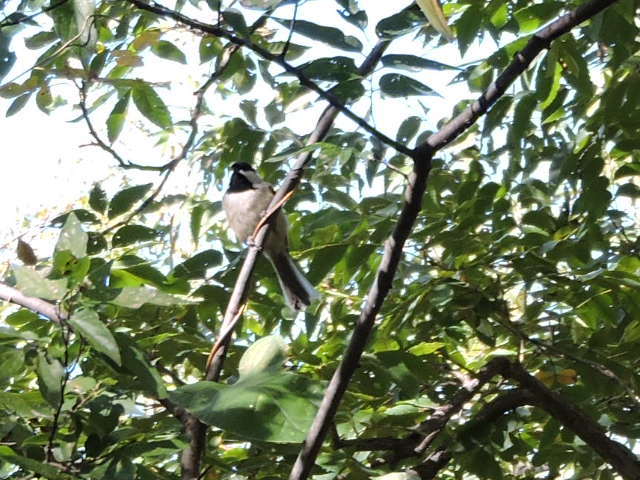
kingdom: Animalia
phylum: Chordata
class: Aves
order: Passeriformes
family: Paridae
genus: Poecile
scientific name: Poecile carolinensis
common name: Carolina chickadee
